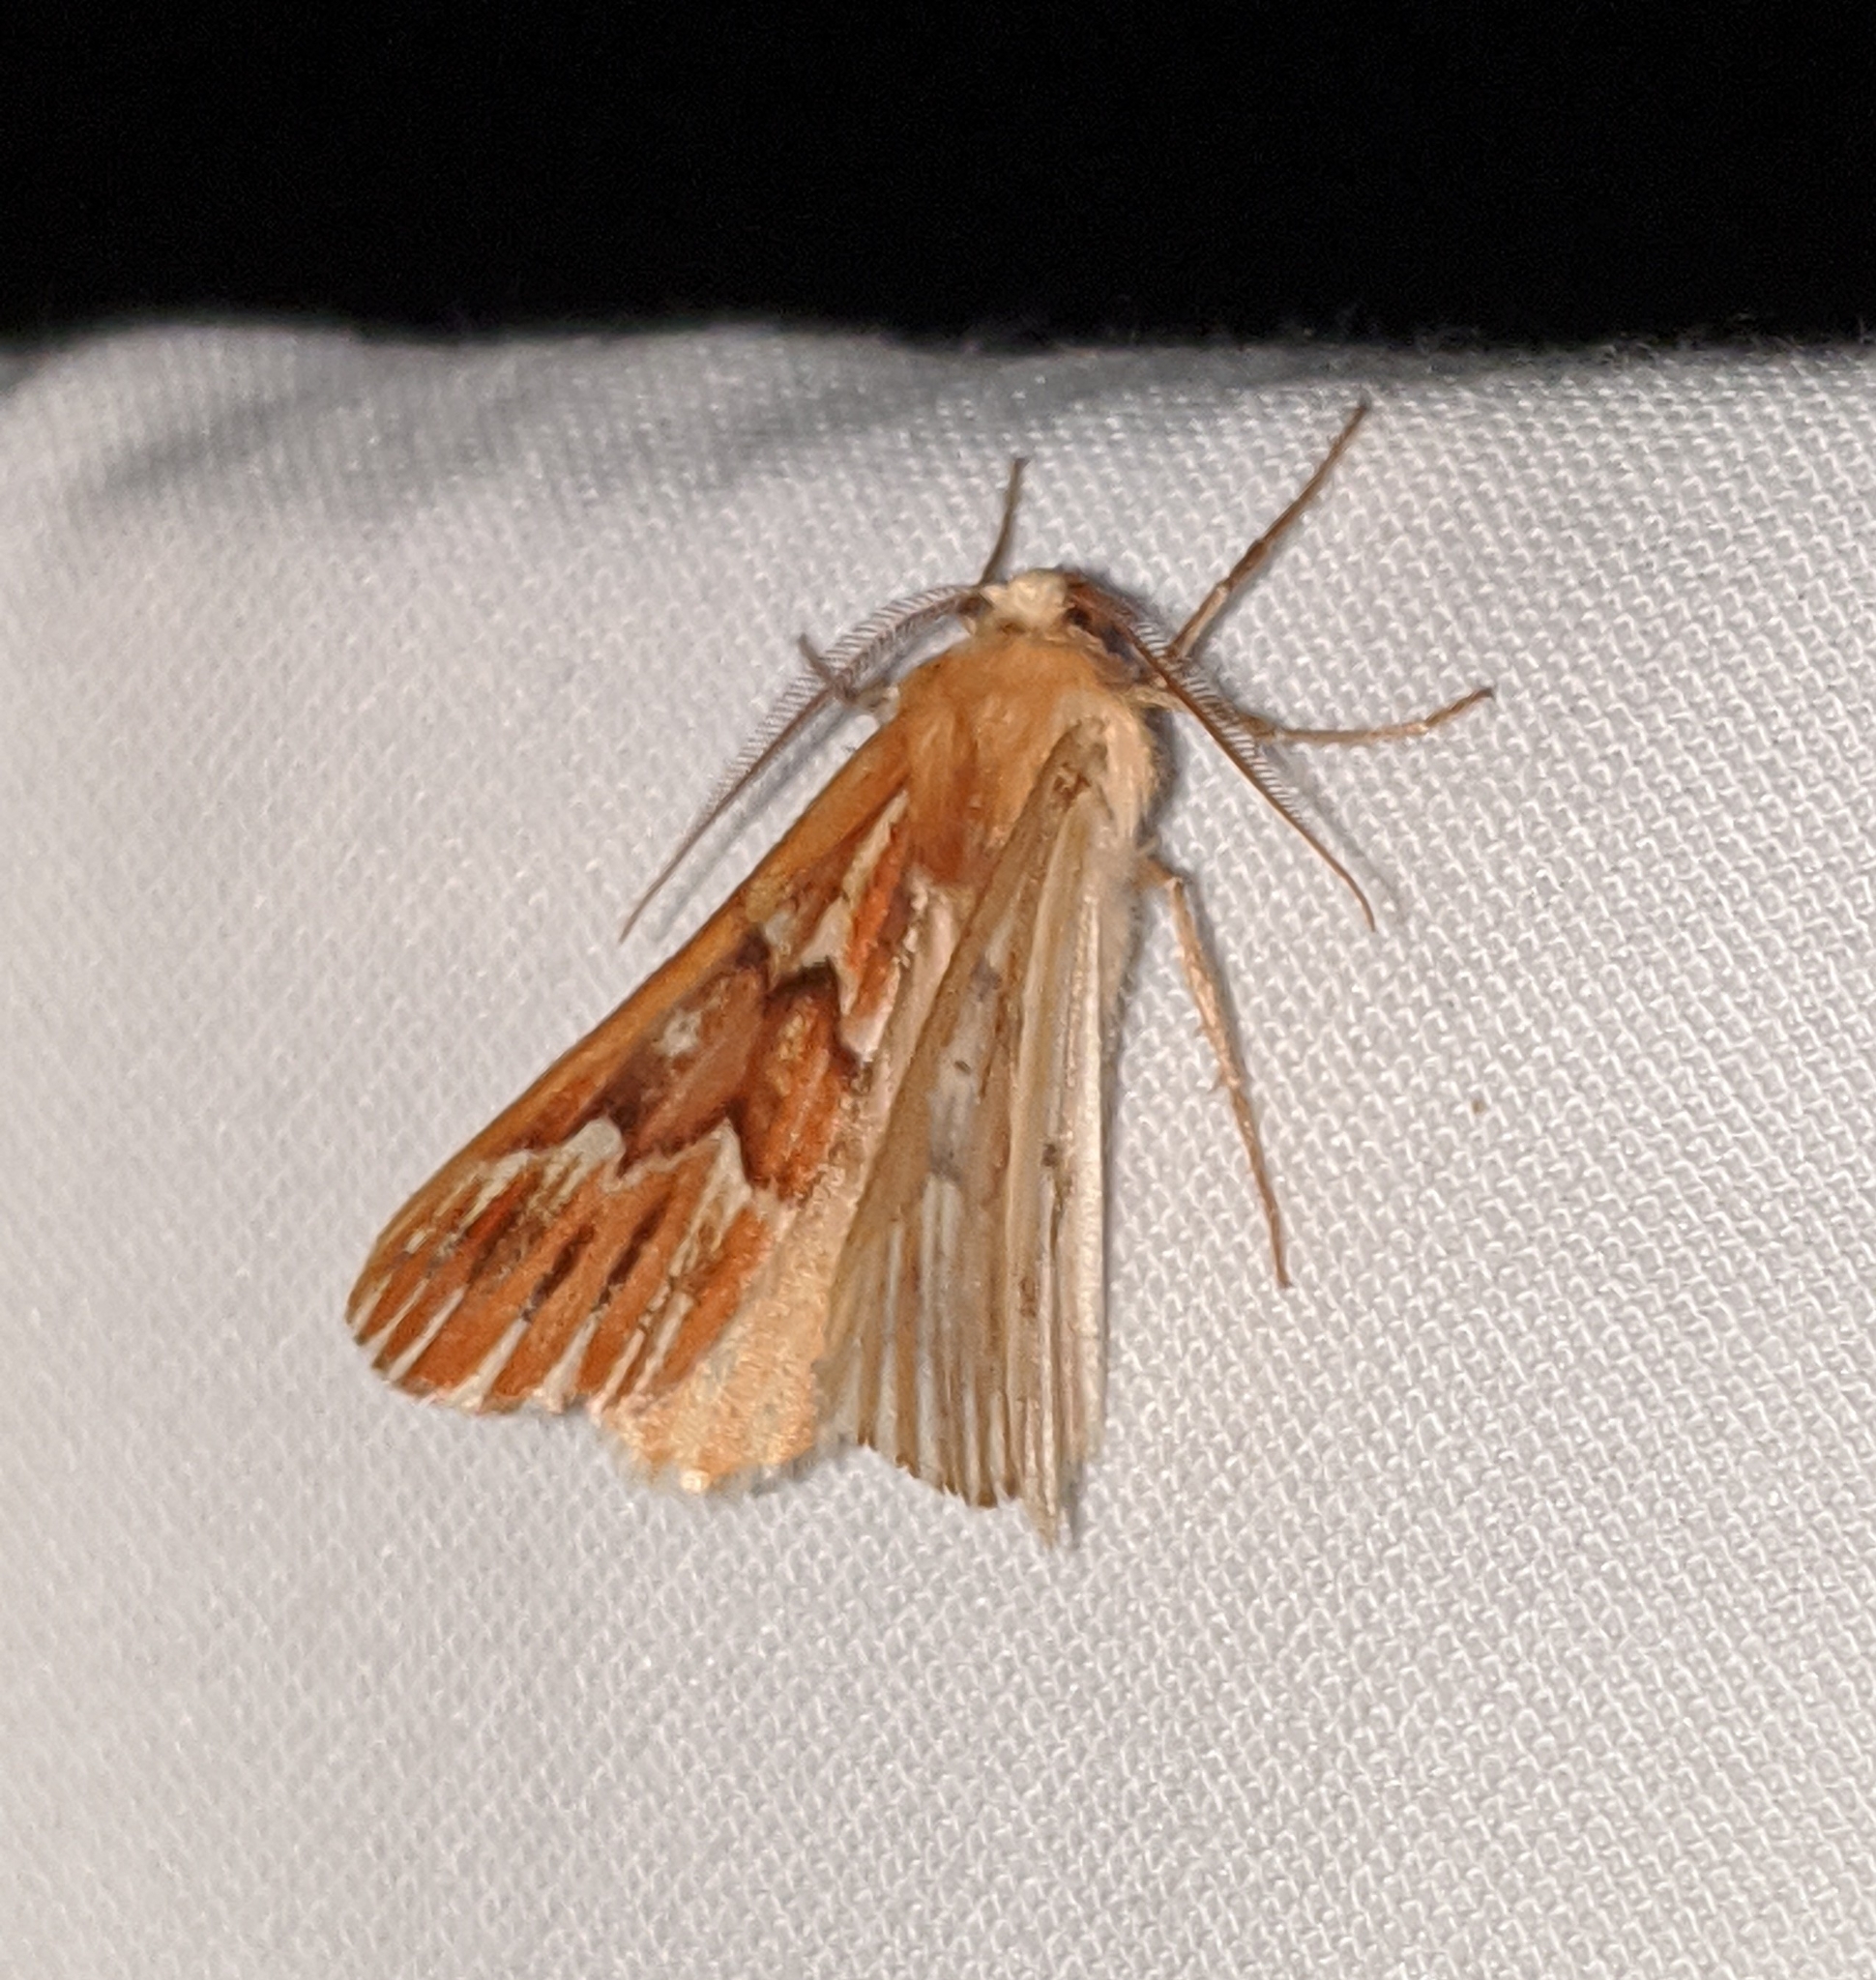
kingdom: Animalia
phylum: Arthropoda
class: Insecta
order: Lepidoptera
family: Geometridae
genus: Caripeta
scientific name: Caripeta aequaliaria
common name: Red girdle moth
